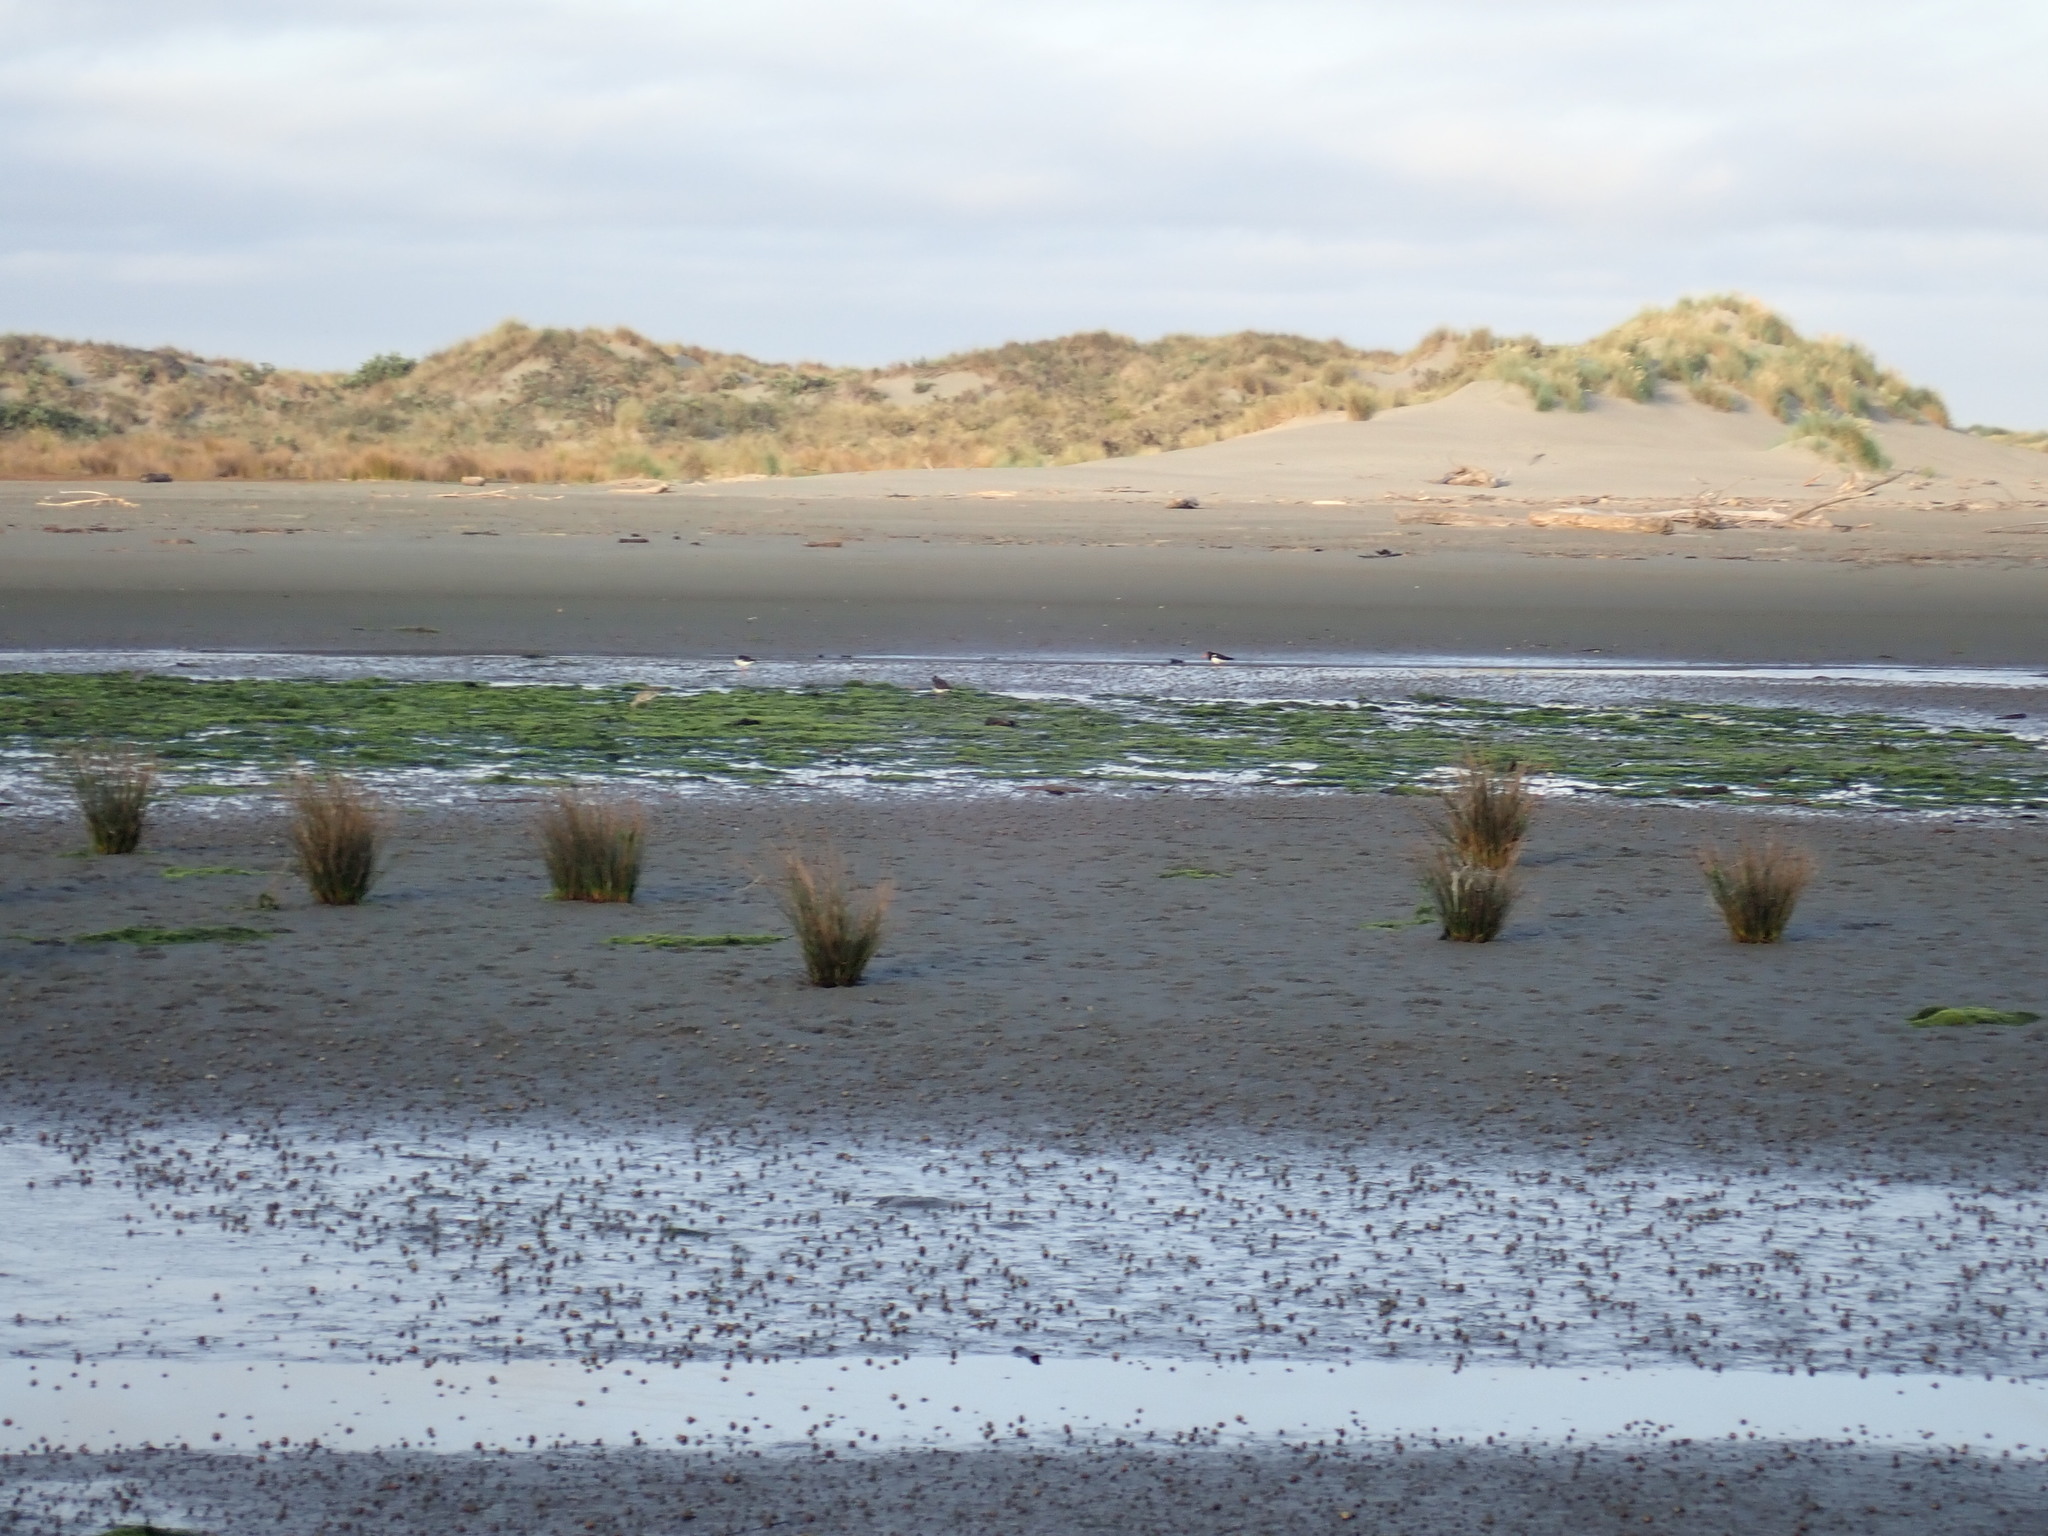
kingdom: Animalia
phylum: Chordata
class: Aves
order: Charadriiformes
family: Haematopodidae
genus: Haematopus
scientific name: Haematopus finschi
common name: South island oystercatcher
